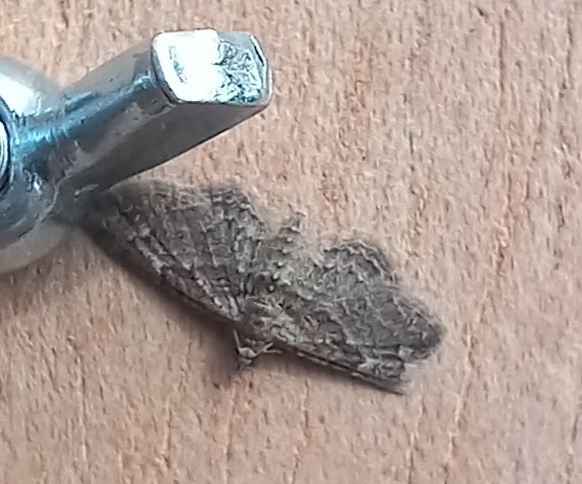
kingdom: Animalia
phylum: Arthropoda
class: Insecta
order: Lepidoptera
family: Geometridae
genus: Gymnoscelis
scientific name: Gymnoscelis rufifasciata
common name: Double-striped pug
